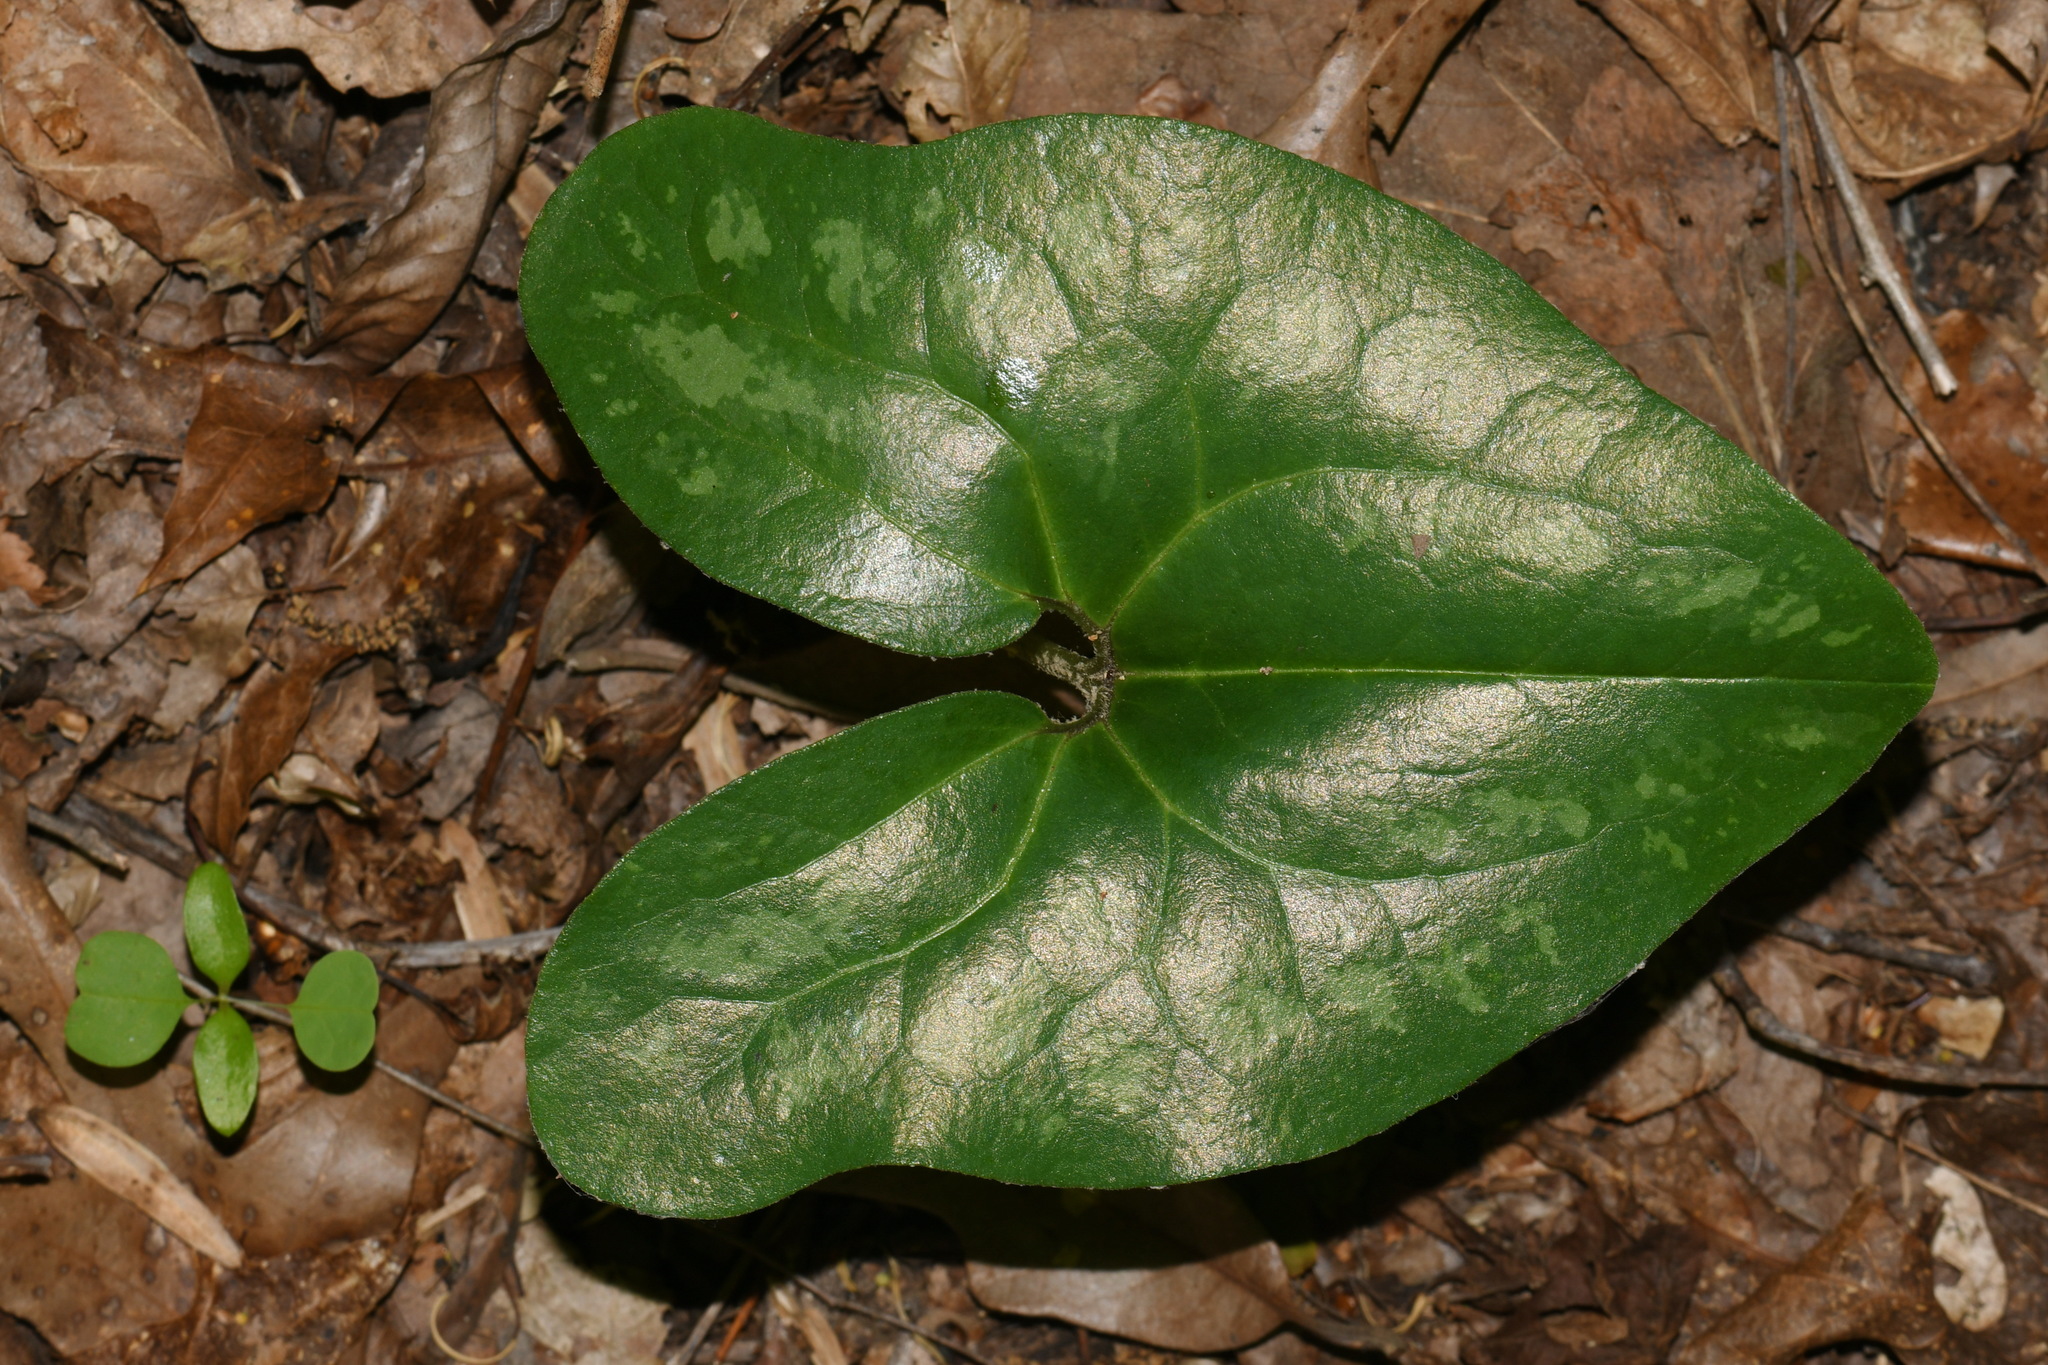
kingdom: Plantae
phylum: Tracheophyta
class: Magnoliopsida
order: Piperales
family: Aristolochiaceae
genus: Hexastylis
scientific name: Hexastylis finzelii
